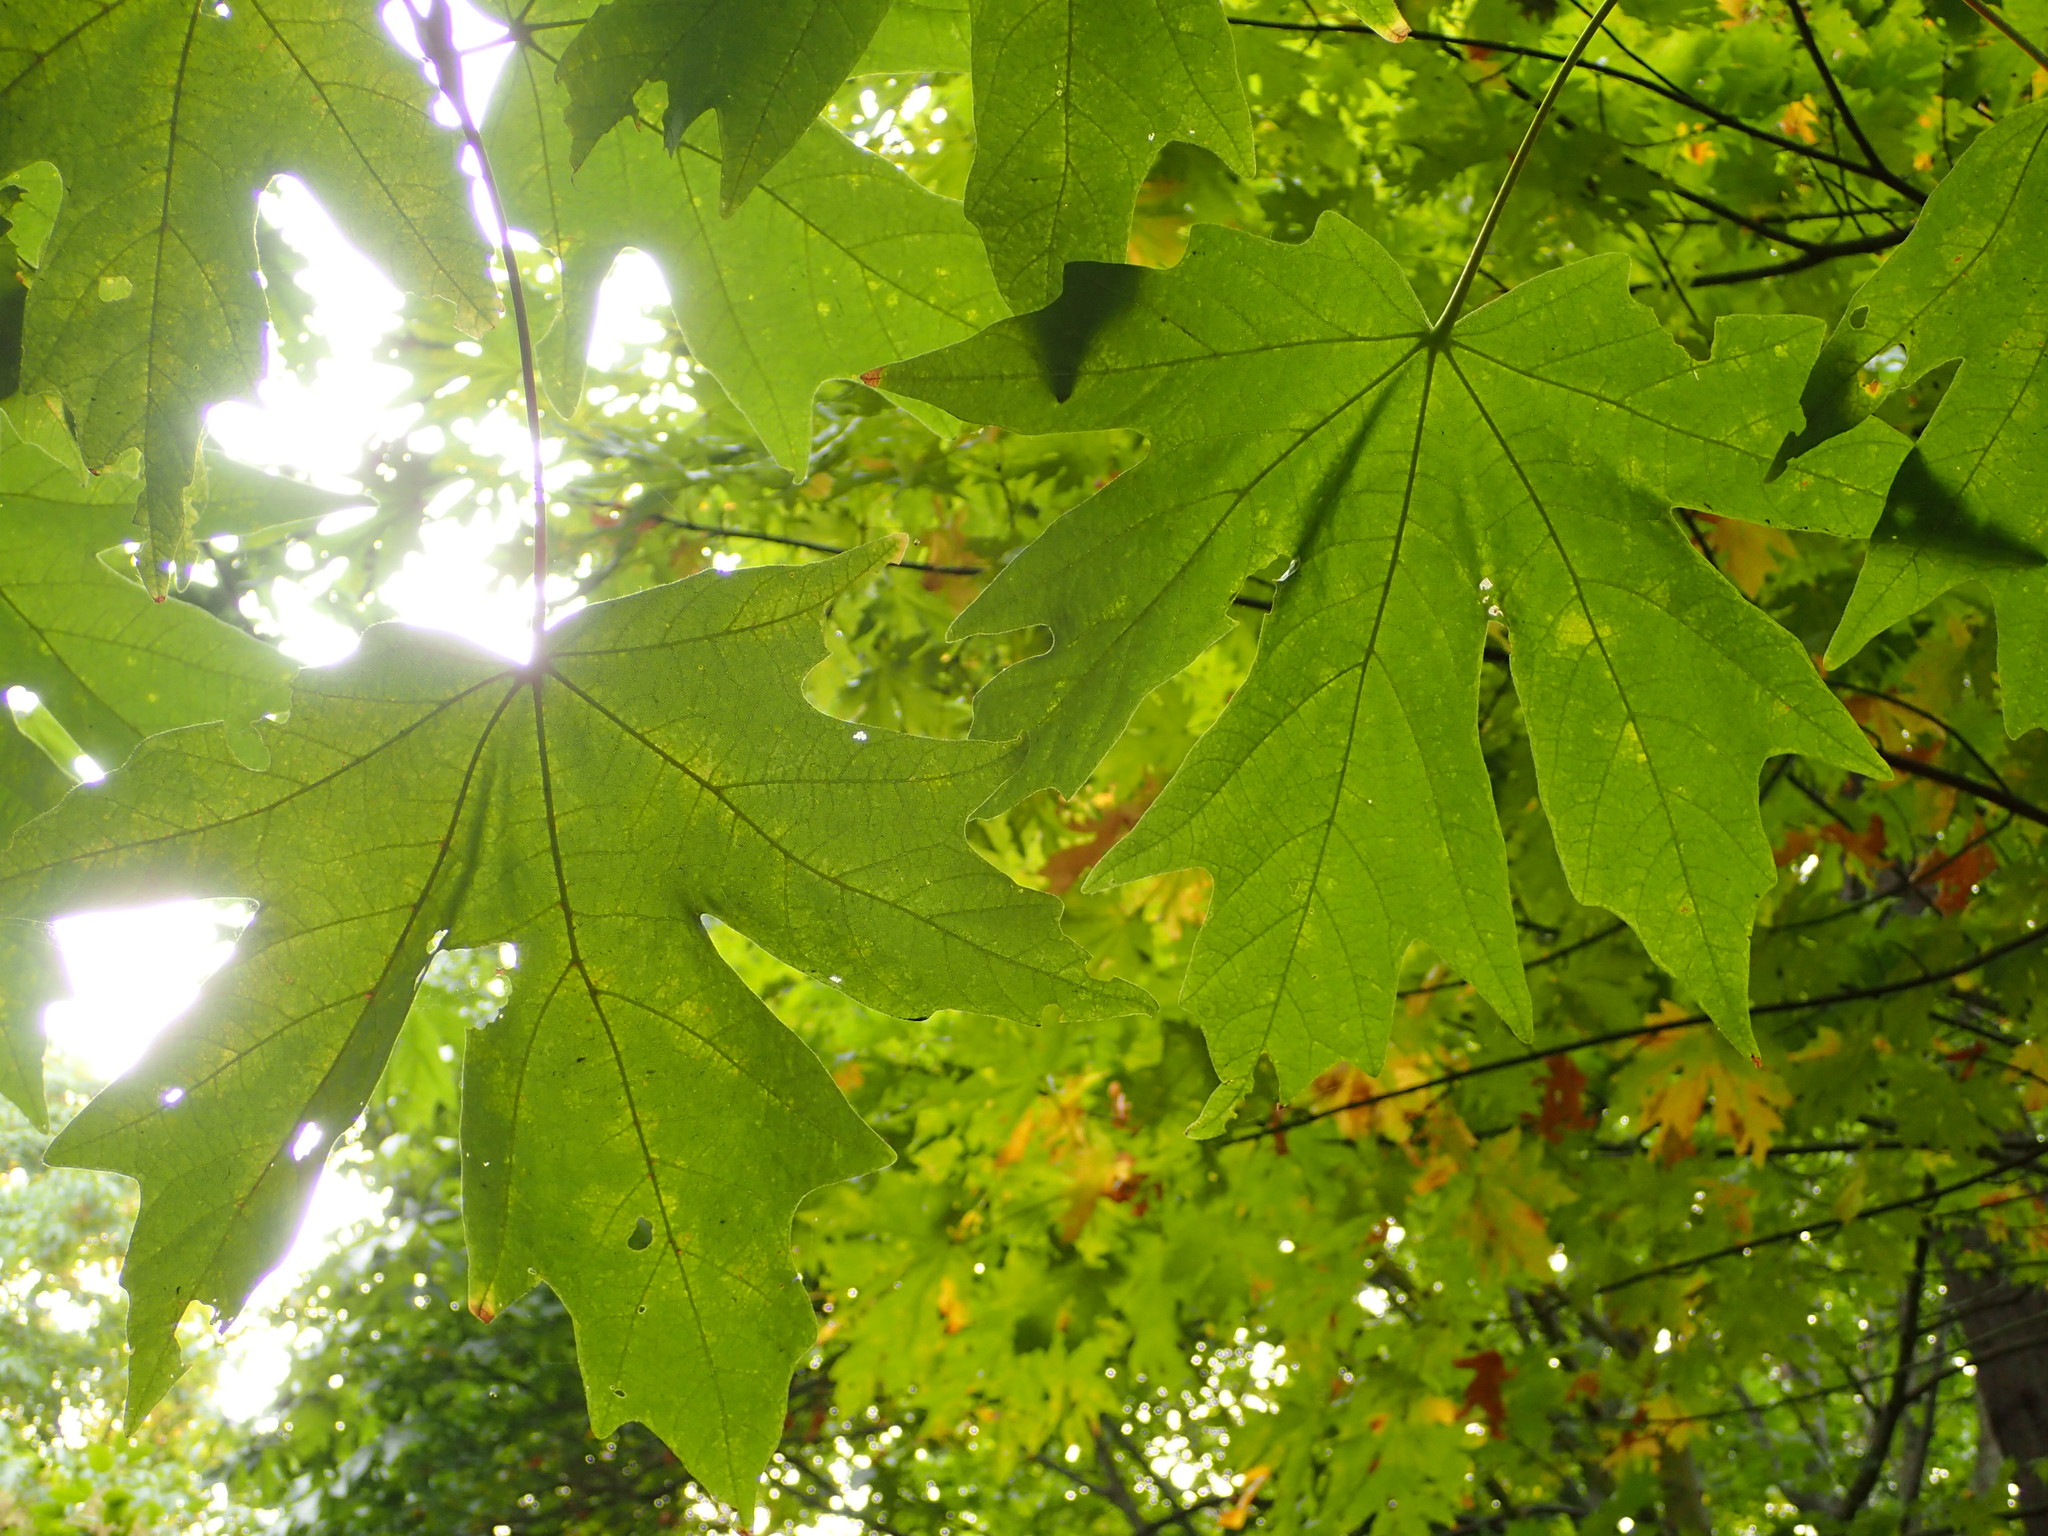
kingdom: Plantae
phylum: Tracheophyta
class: Magnoliopsida
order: Sapindales
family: Sapindaceae
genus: Acer
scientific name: Acer macrophyllum
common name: Oregon maple
